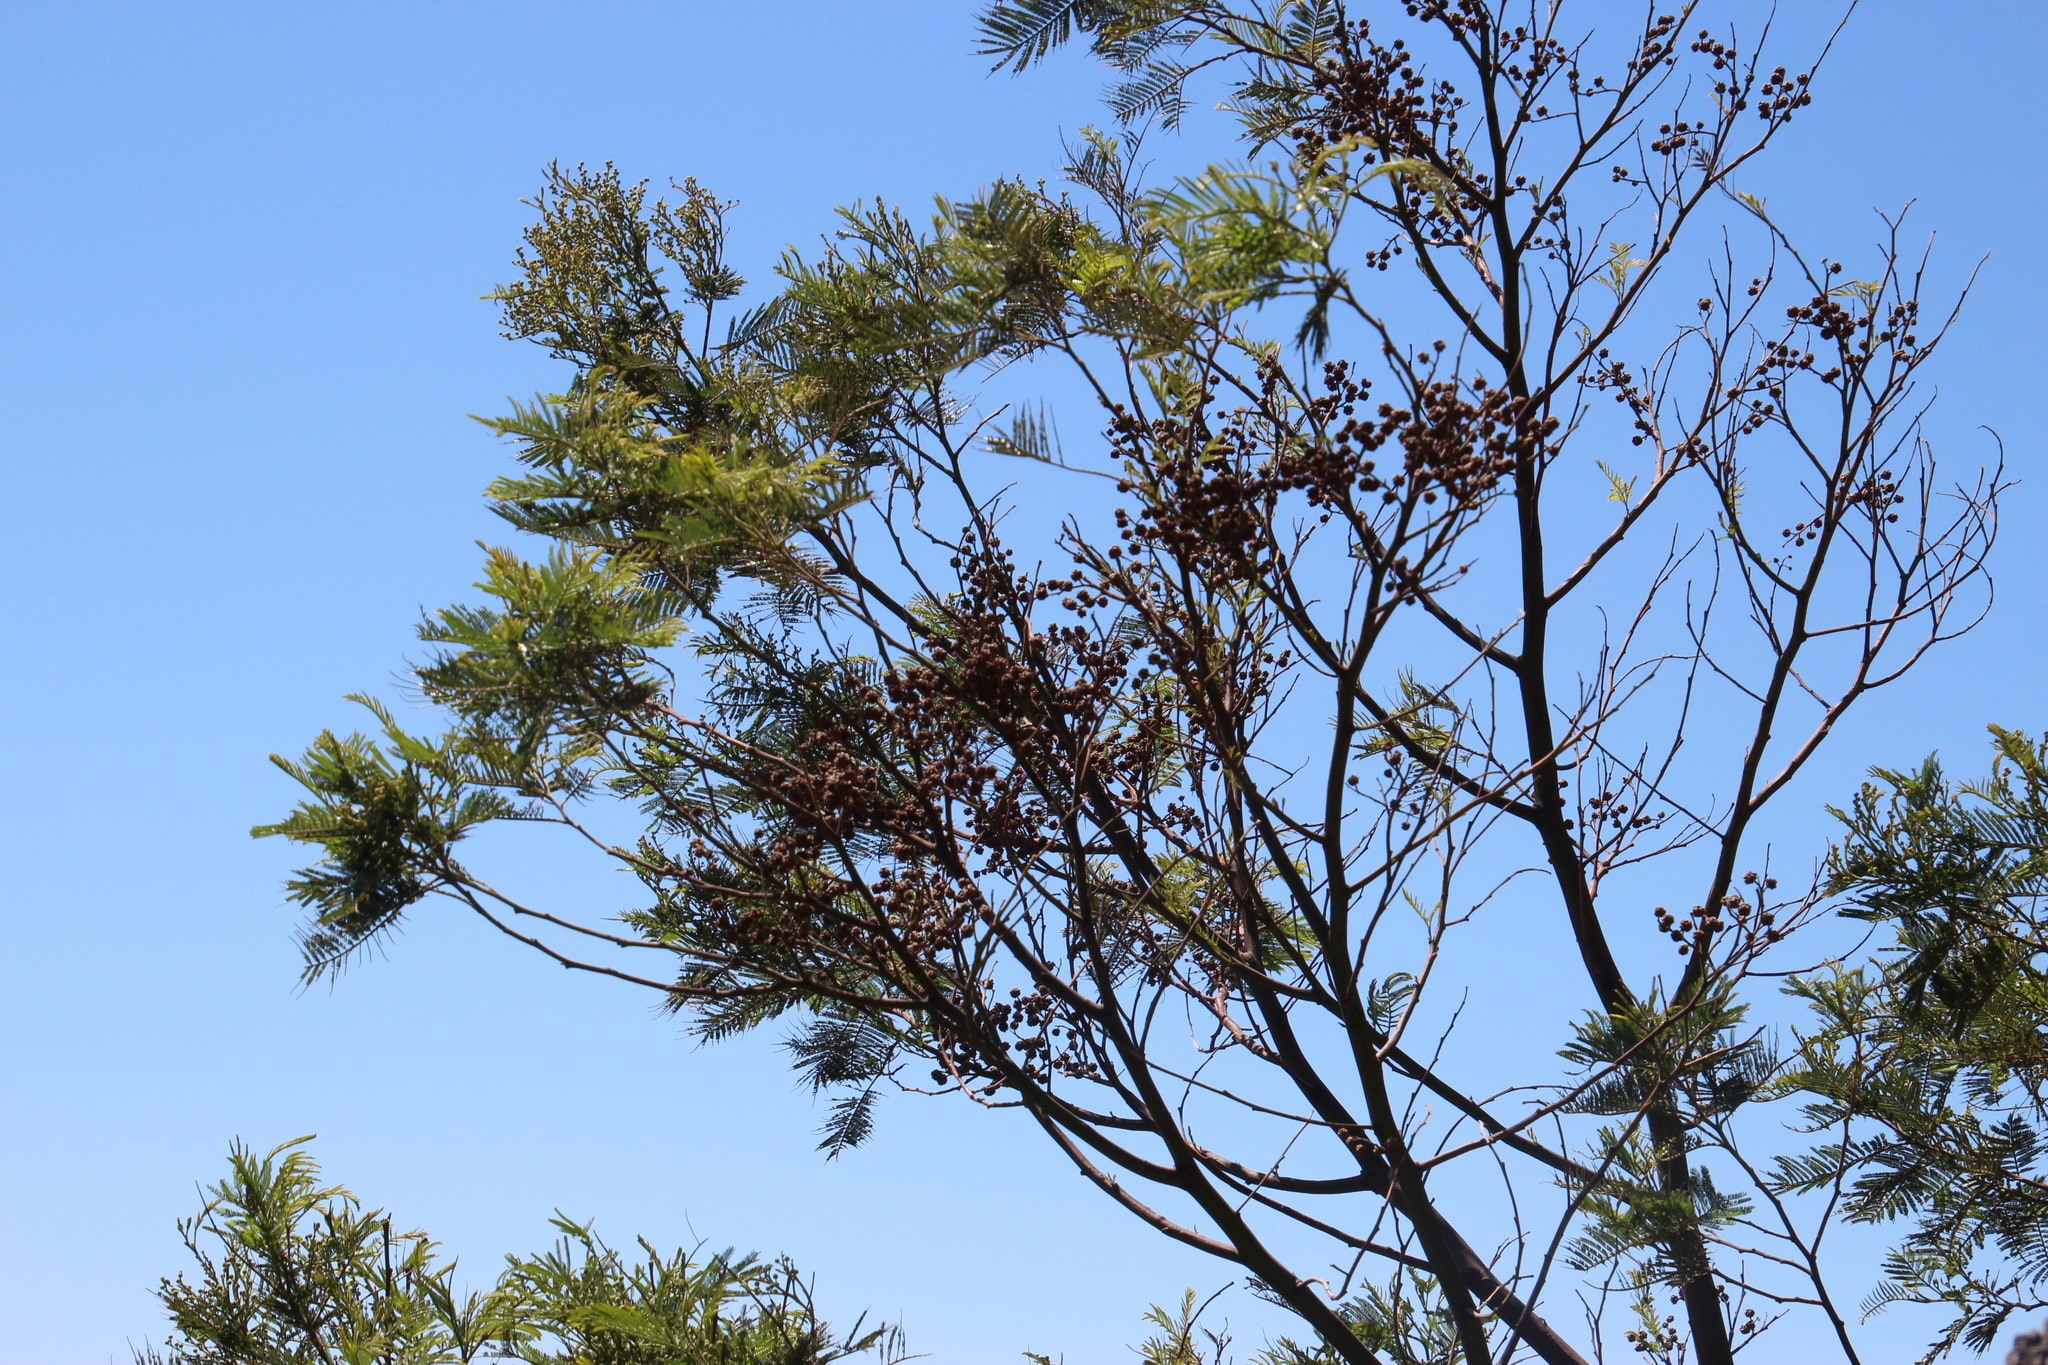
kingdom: Animalia
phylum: Arthropoda
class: Insecta
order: Diptera
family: Cecidomyiidae
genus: Dasineura
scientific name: Dasineura rubiformis
